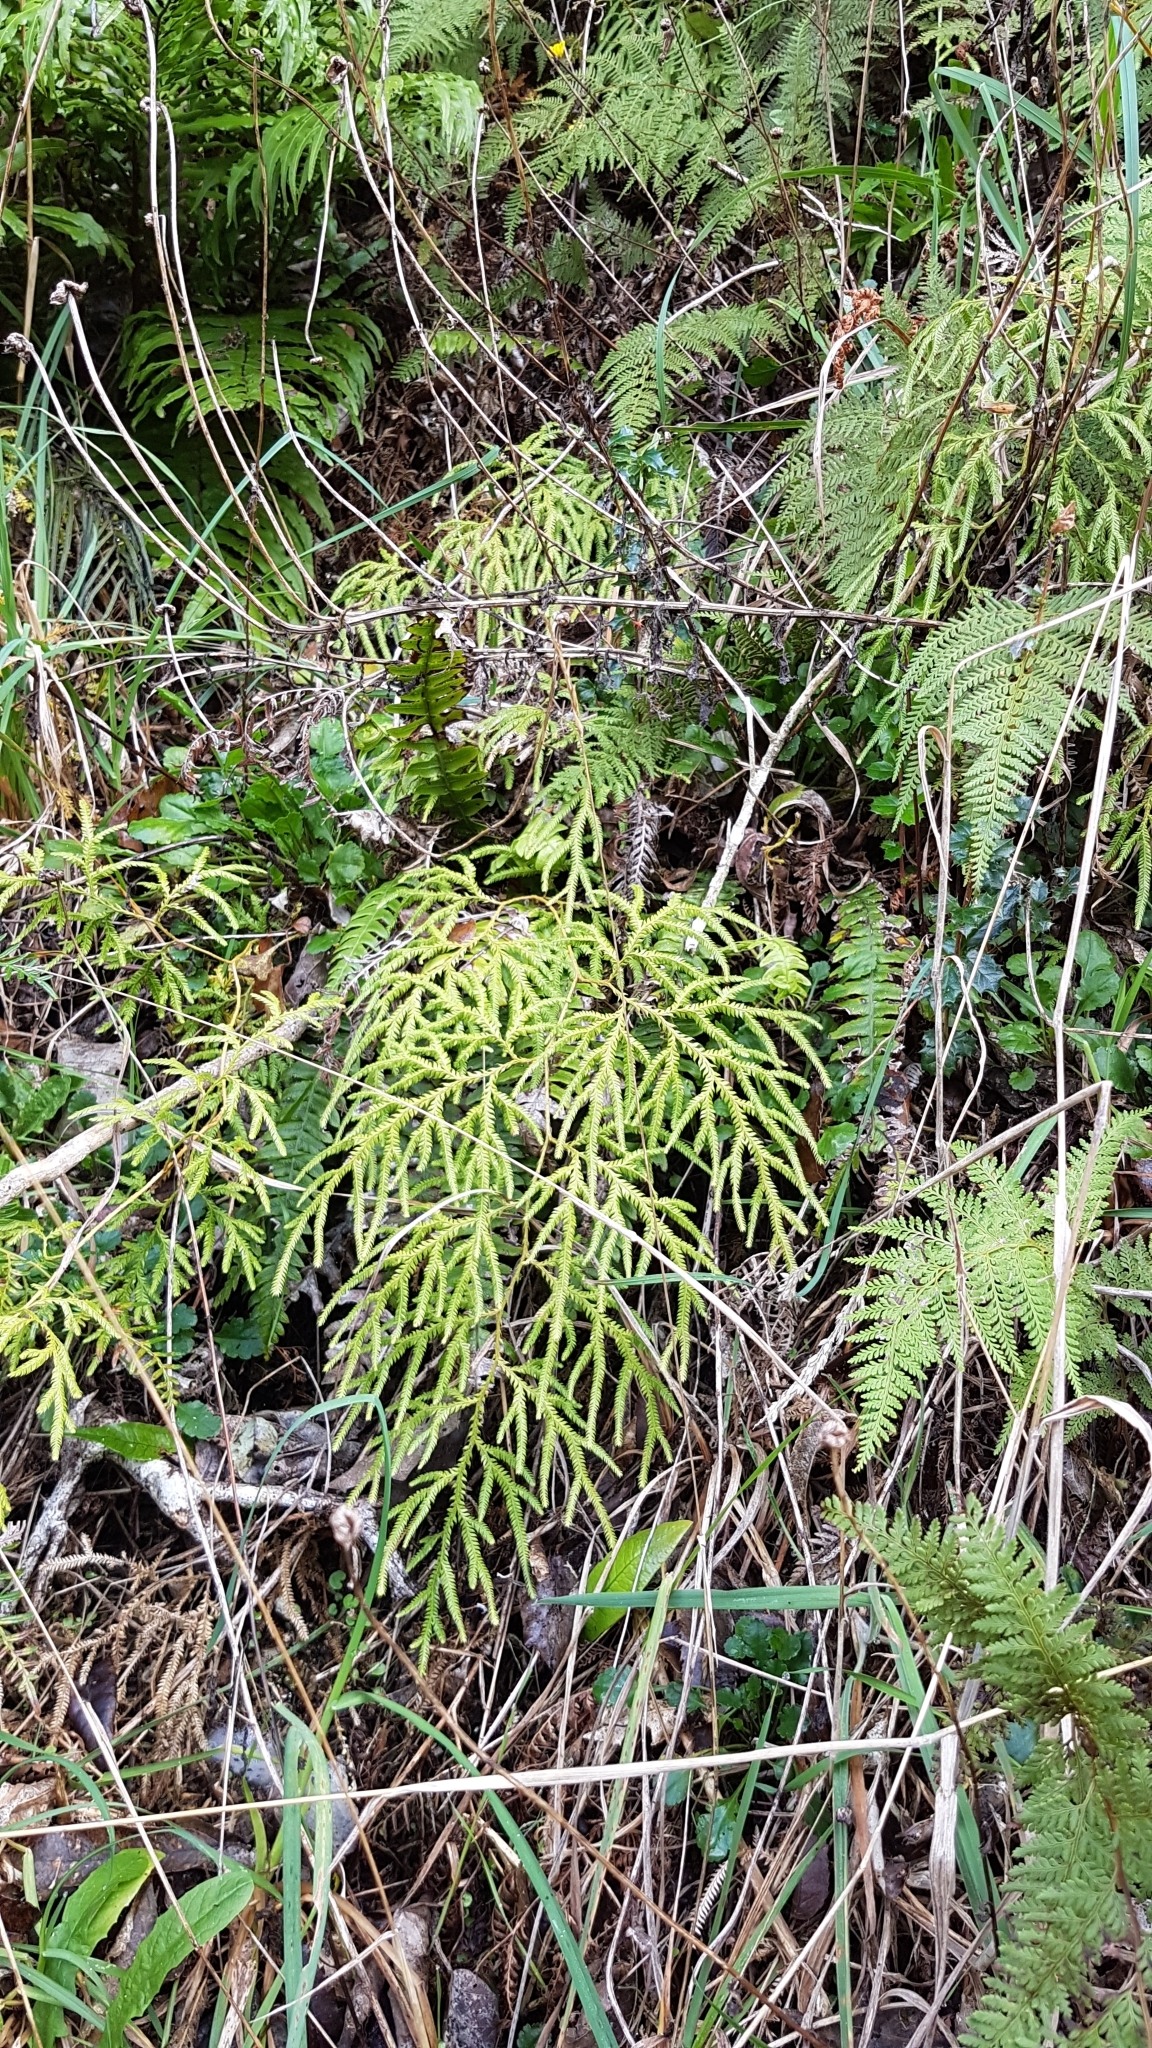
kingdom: Plantae
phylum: Tracheophyta
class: Lycopodiopsida
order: Lycopodiales
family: Lycopodiaceae
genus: Lycopodium
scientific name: Lycopodium volubile
